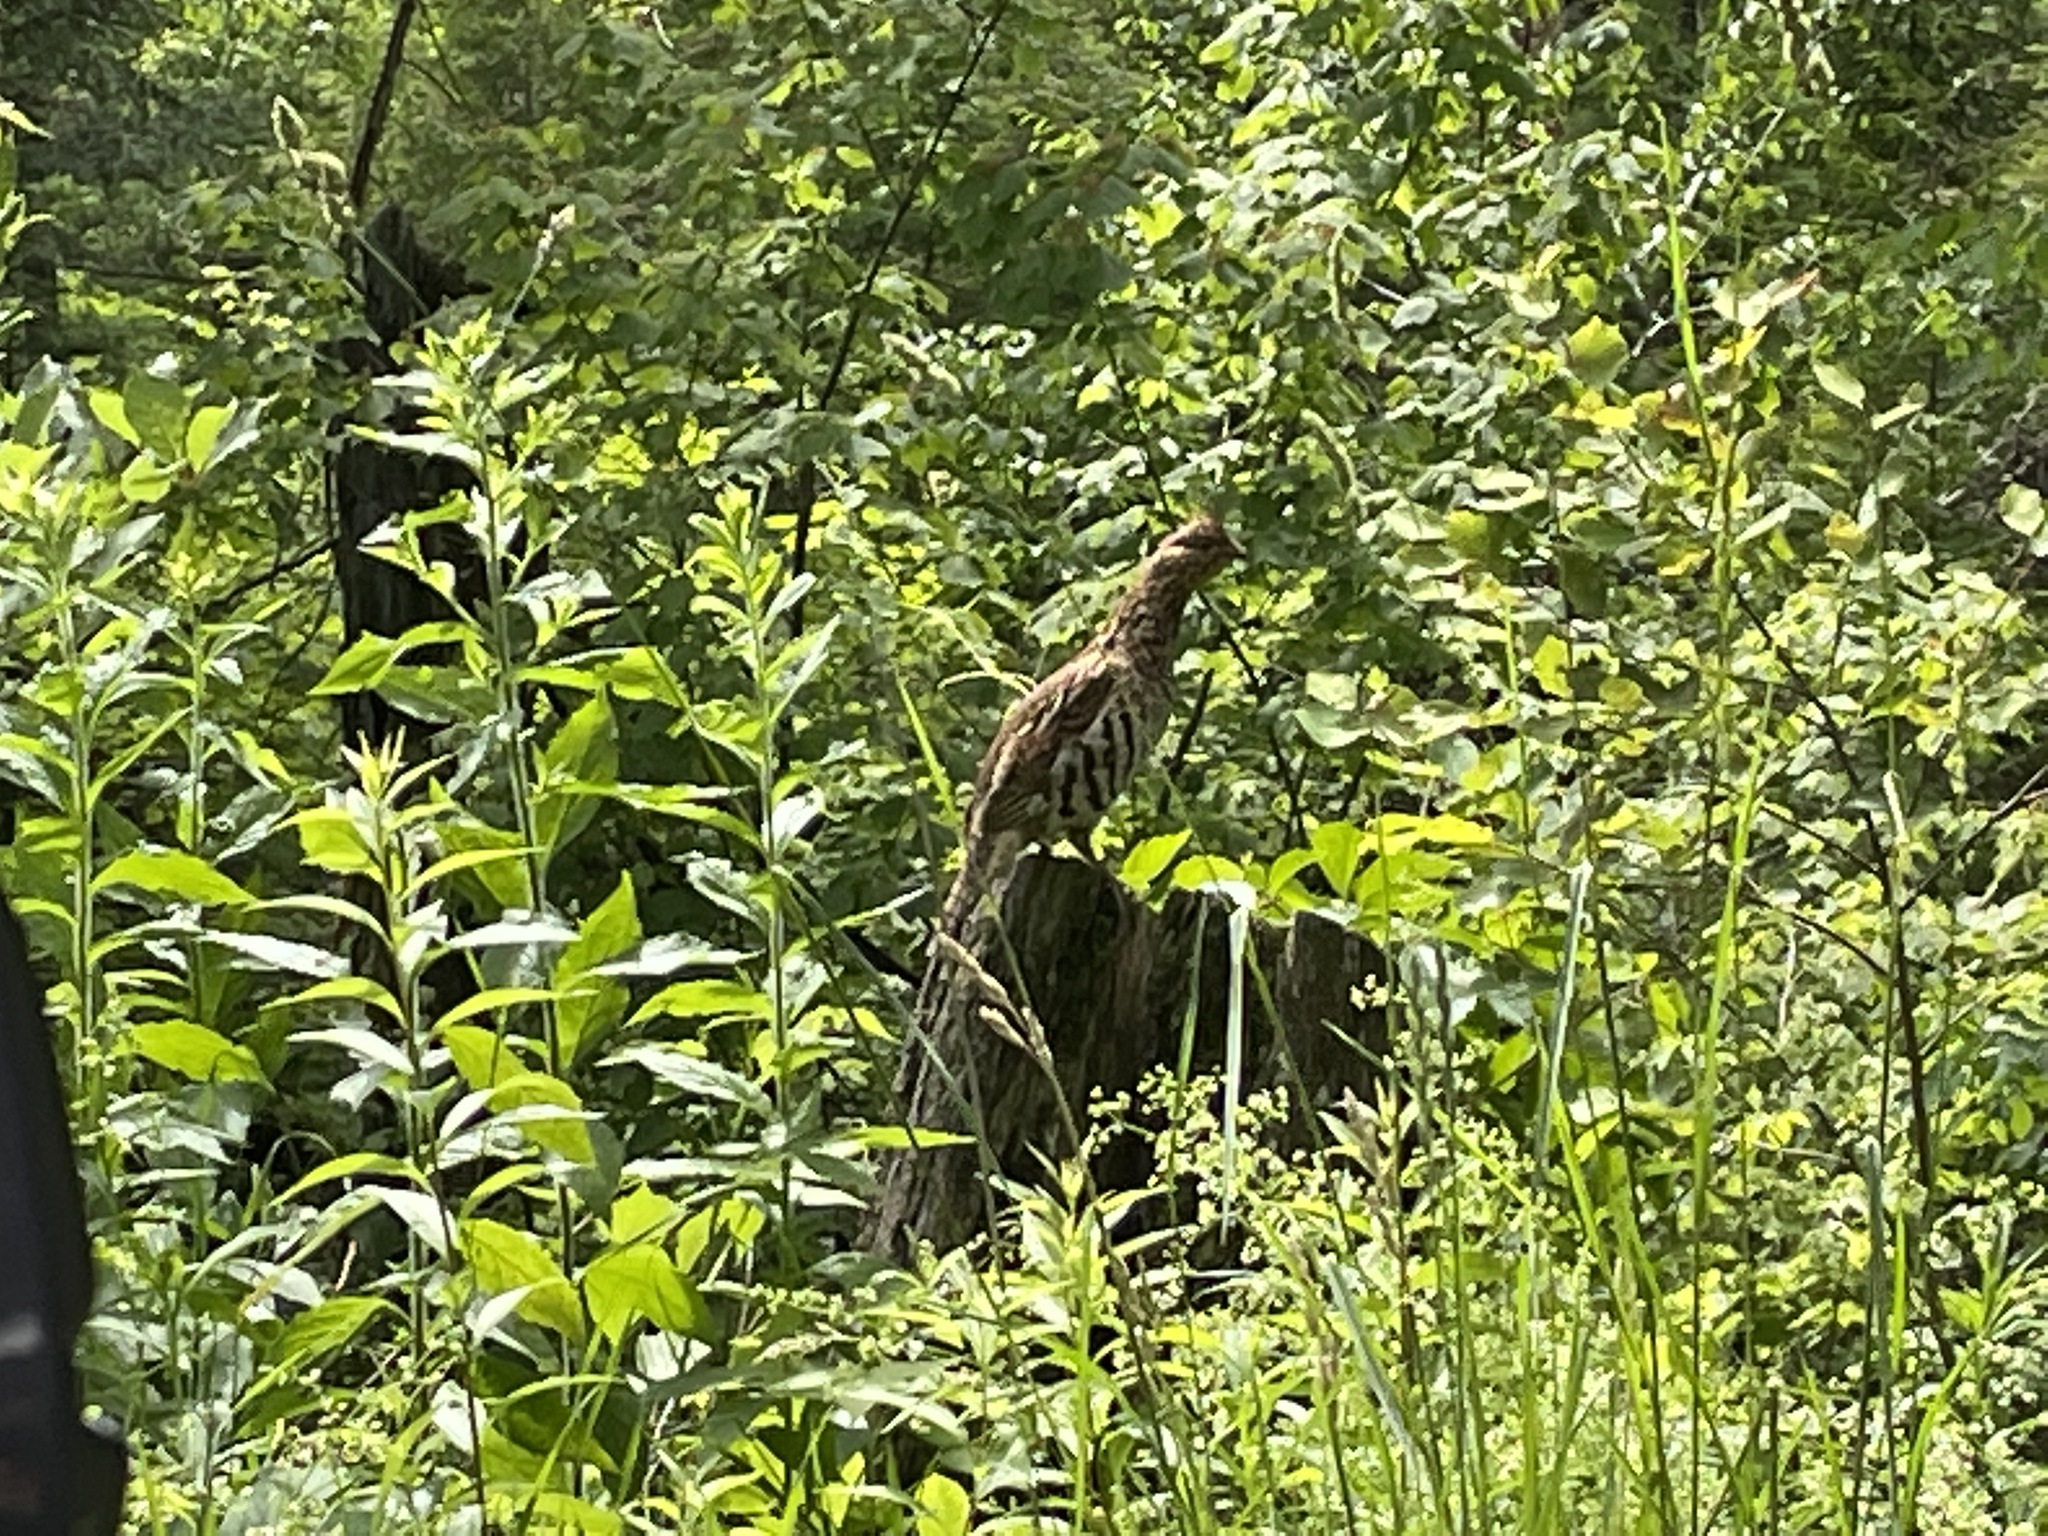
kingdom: Animalia
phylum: Chordata
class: Aves
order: Galliformes
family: Phasianidae
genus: Bonasa
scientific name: Bonasa umbellus
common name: Ruffed grouse
